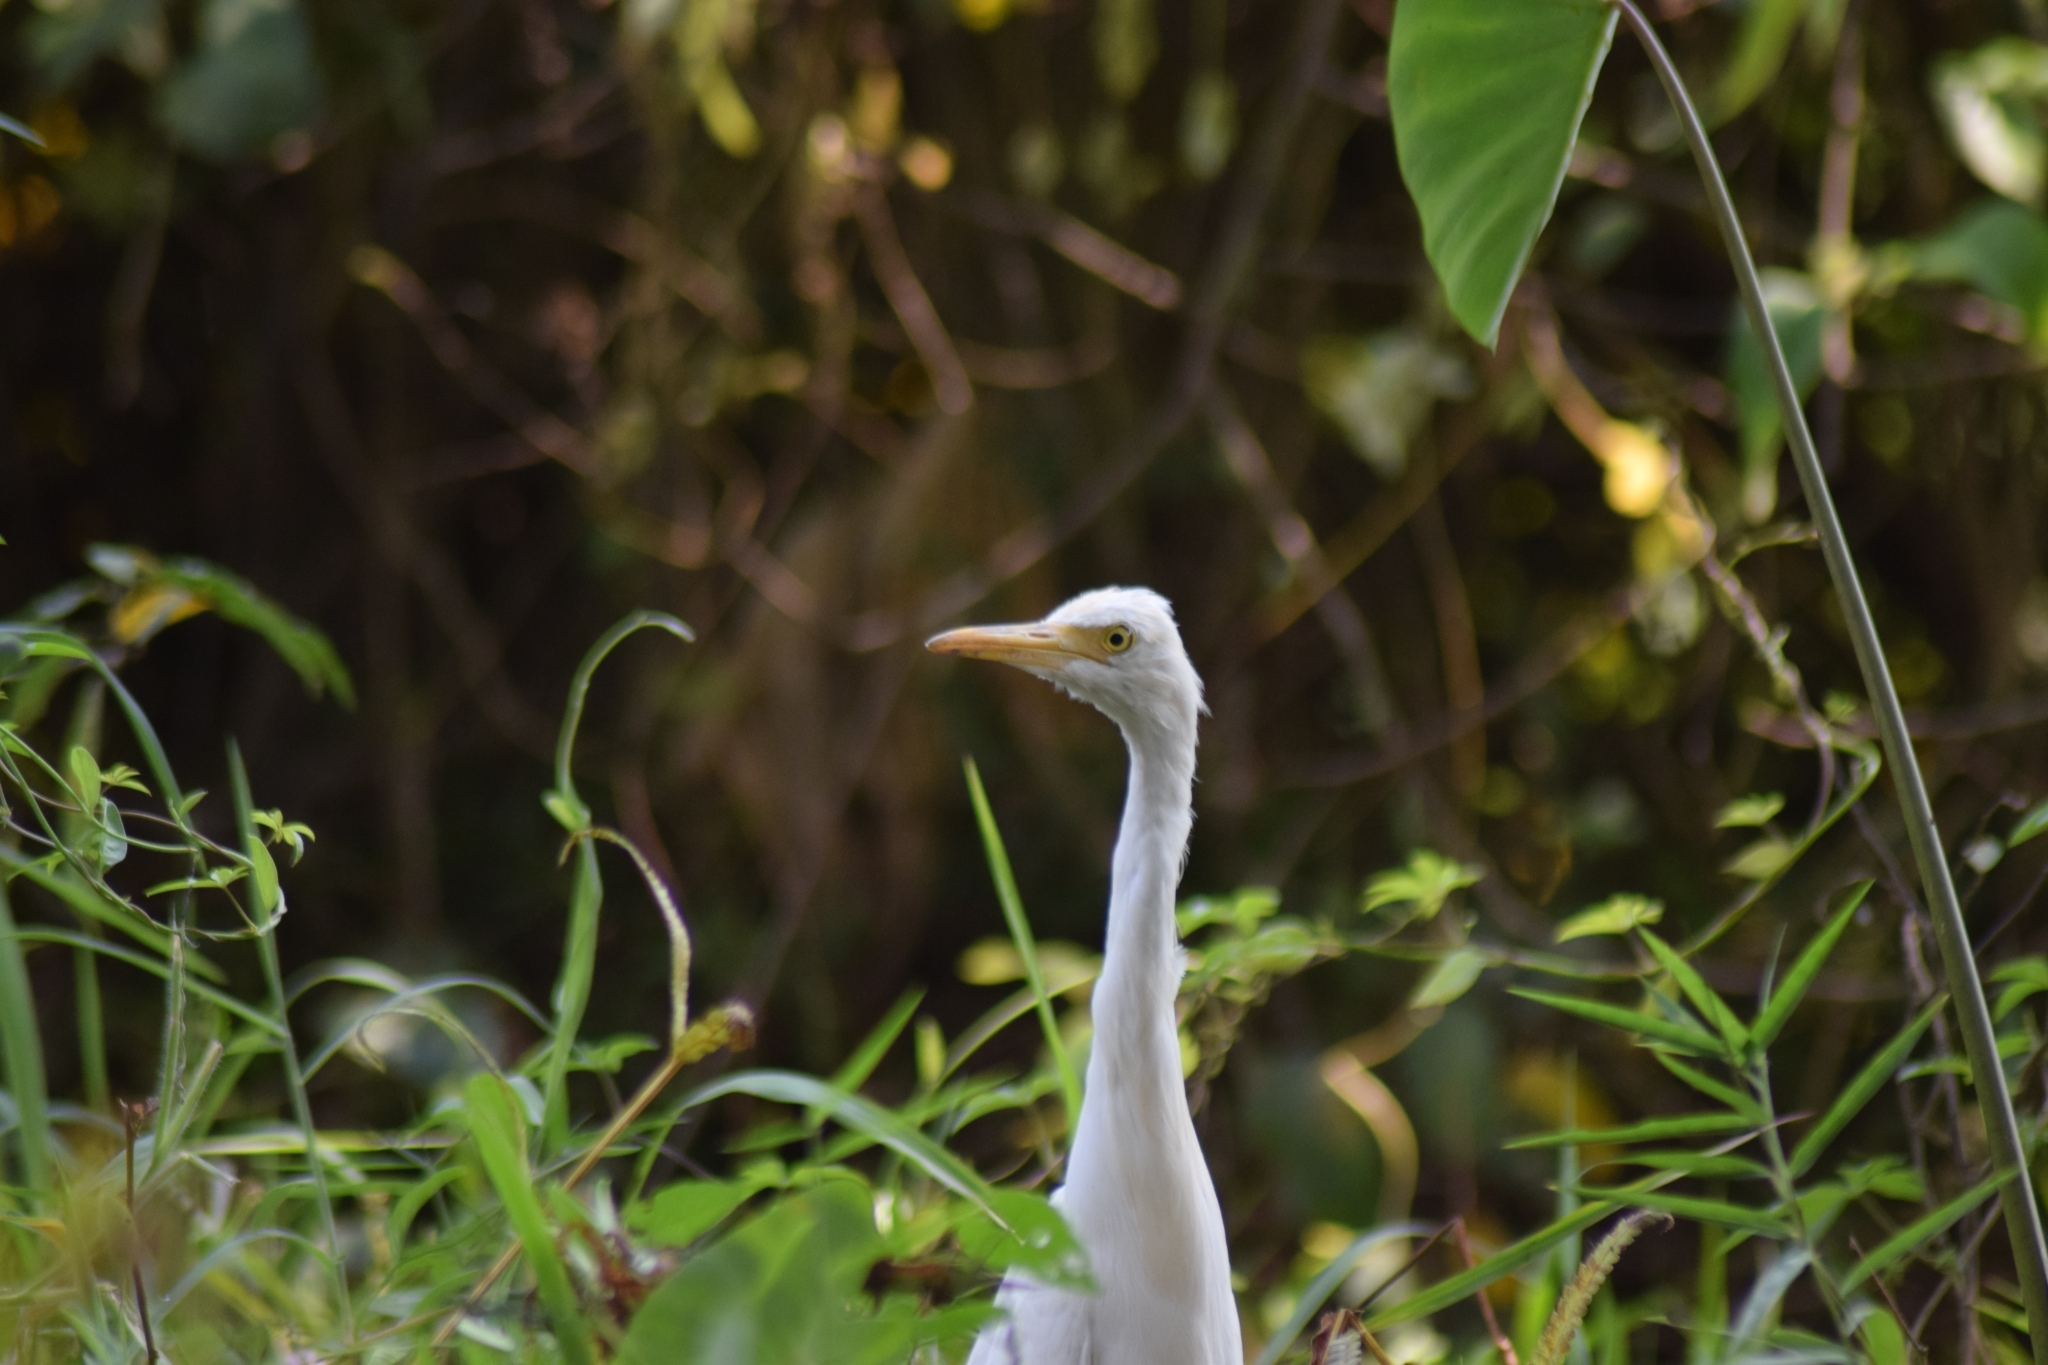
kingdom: Animalia
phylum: Chordata
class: Aves
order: Pelecaniformes
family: Ardeidae
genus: Bubulcus
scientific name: Bubulcus coromandus
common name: Eastern cattle egret
